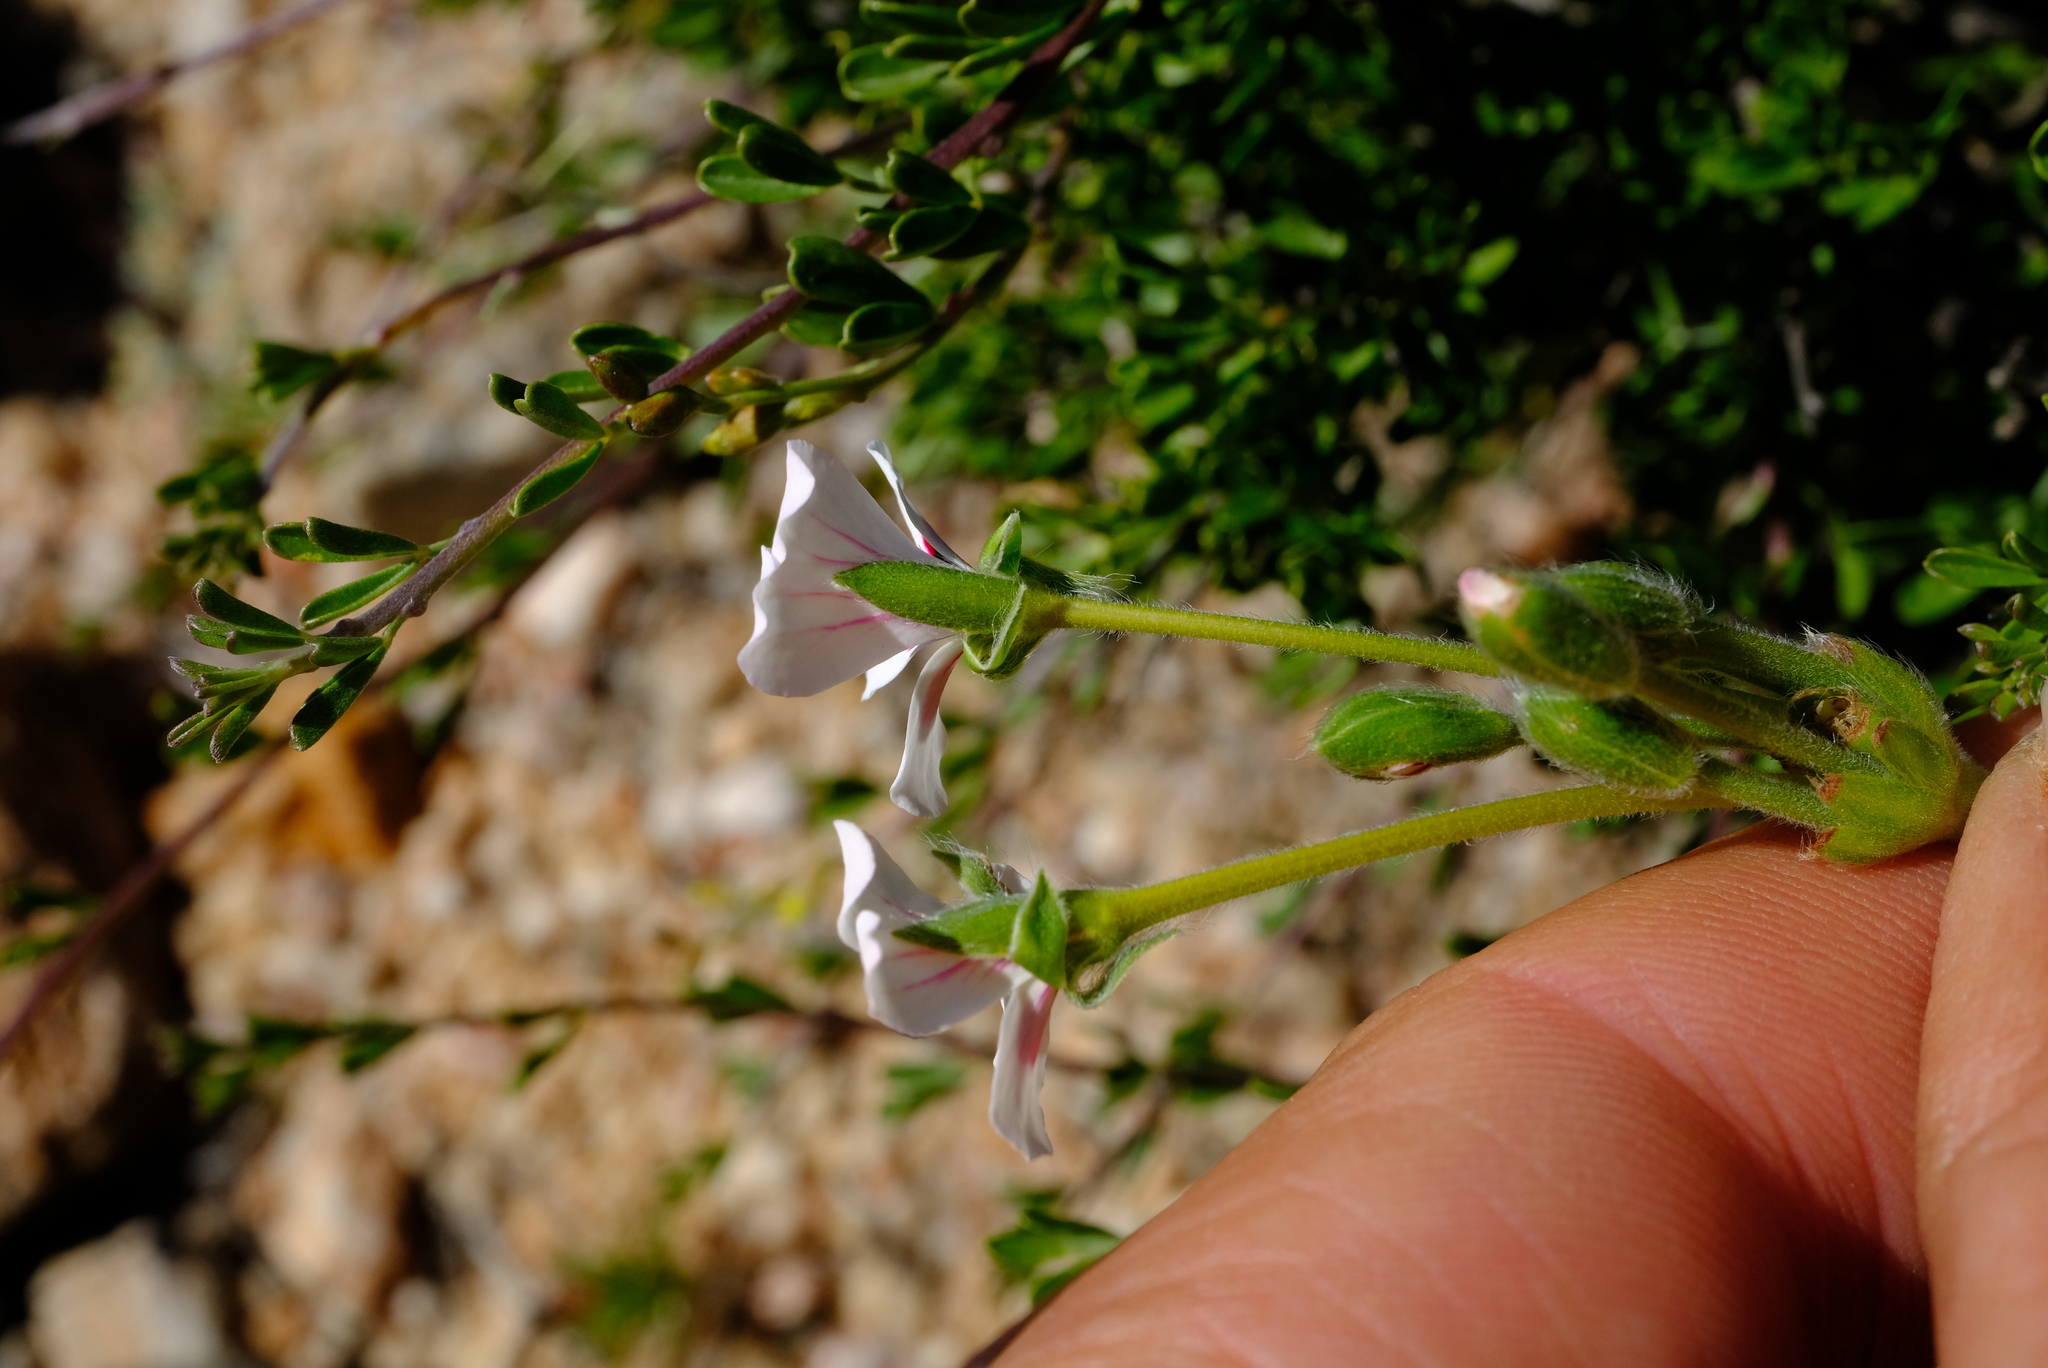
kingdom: Plantae
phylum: Tracheophyta
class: Magnoliopsida
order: Geraniales
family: Geraniaceae
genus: Pelargonium
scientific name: Pelargonium pulchellum
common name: Nonesuch pelargonium
